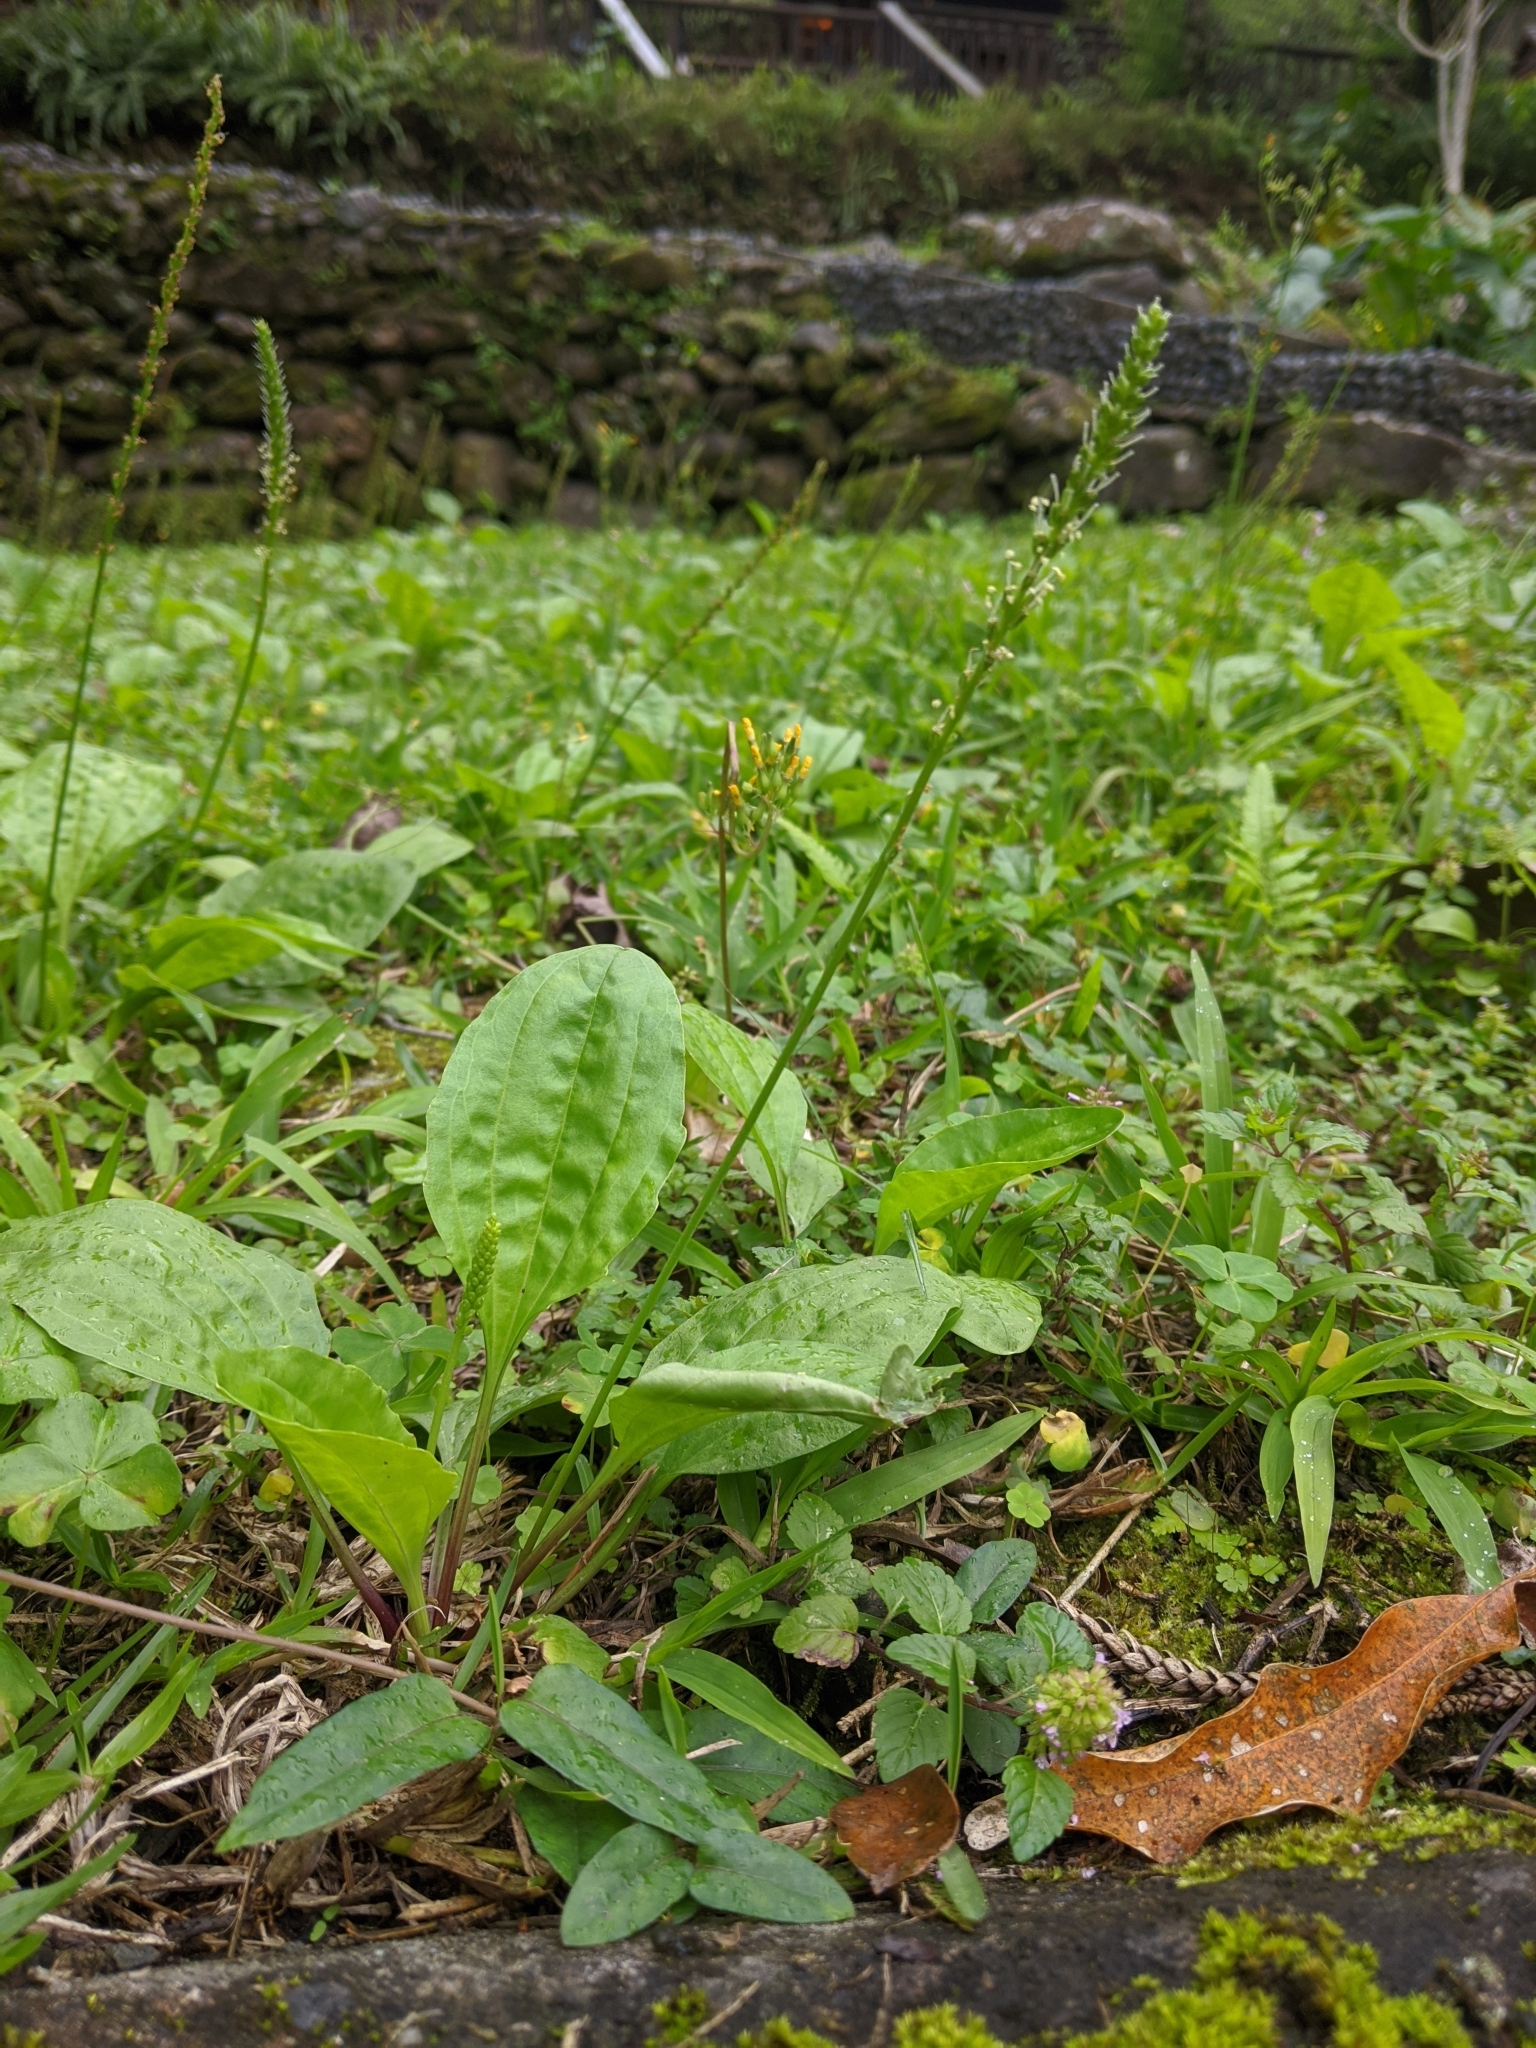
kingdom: Plantae
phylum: Tracheophyta
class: Magnoliopsida
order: Lamiales
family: Plantaginaceae
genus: Plantago
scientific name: Plantago asiatica
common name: Psyllium
